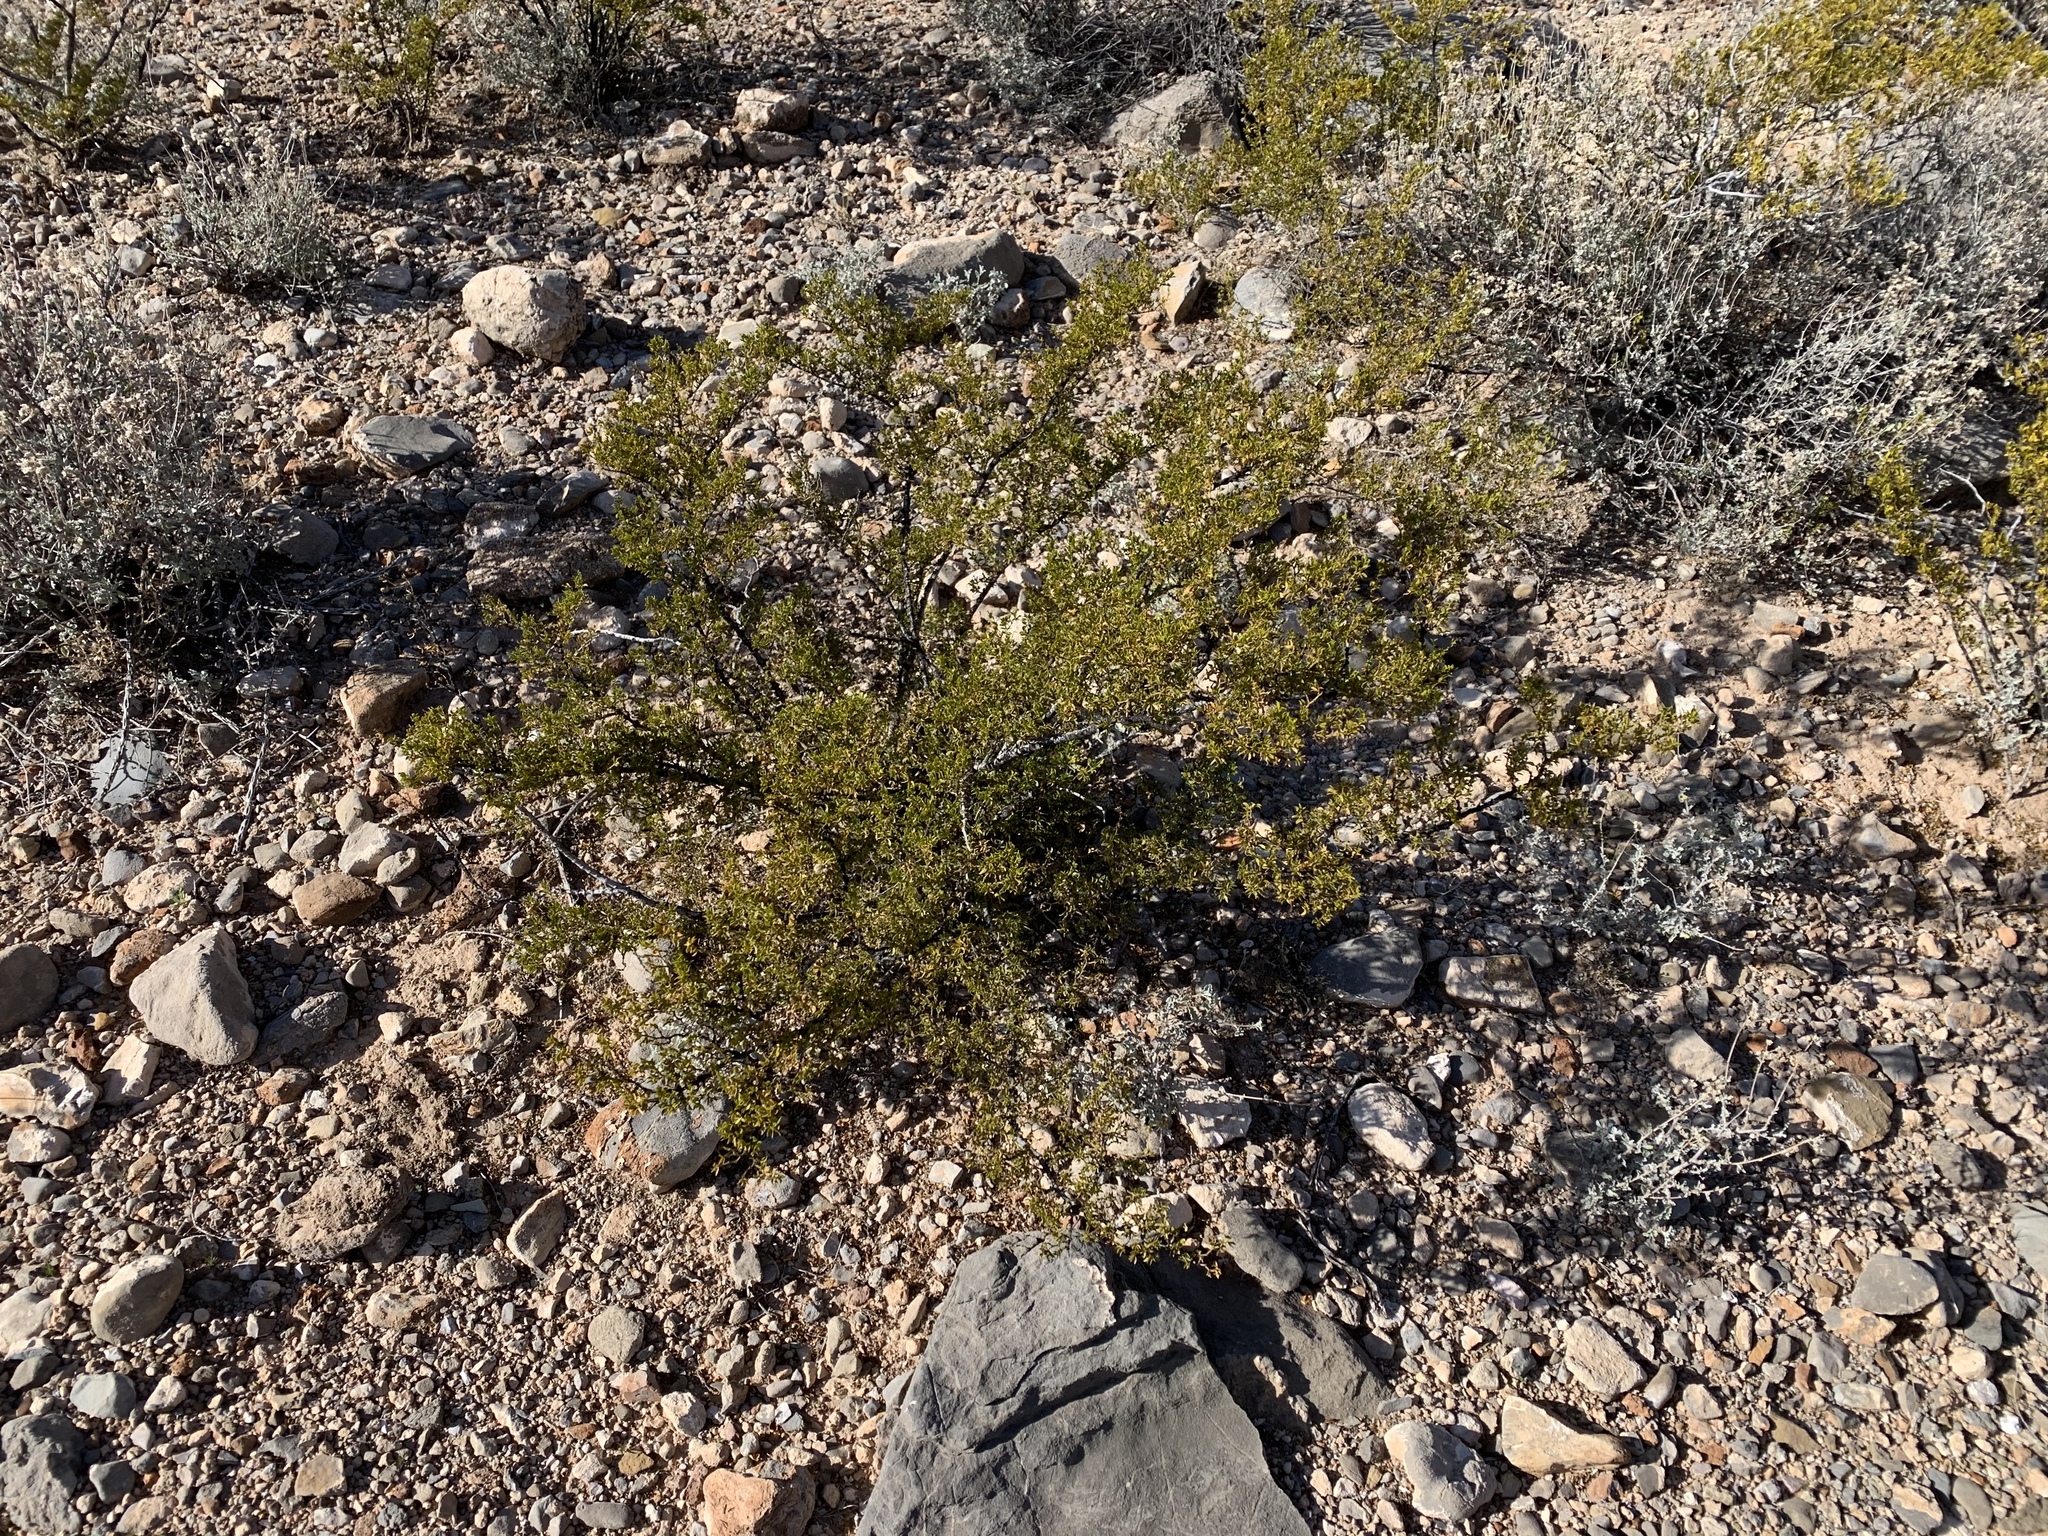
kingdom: Plantae
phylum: Tracheophyta
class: Magnoliopsida
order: Zygophyllales
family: Zygophyllaceae
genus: Larrea
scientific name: Larrea tridentata
